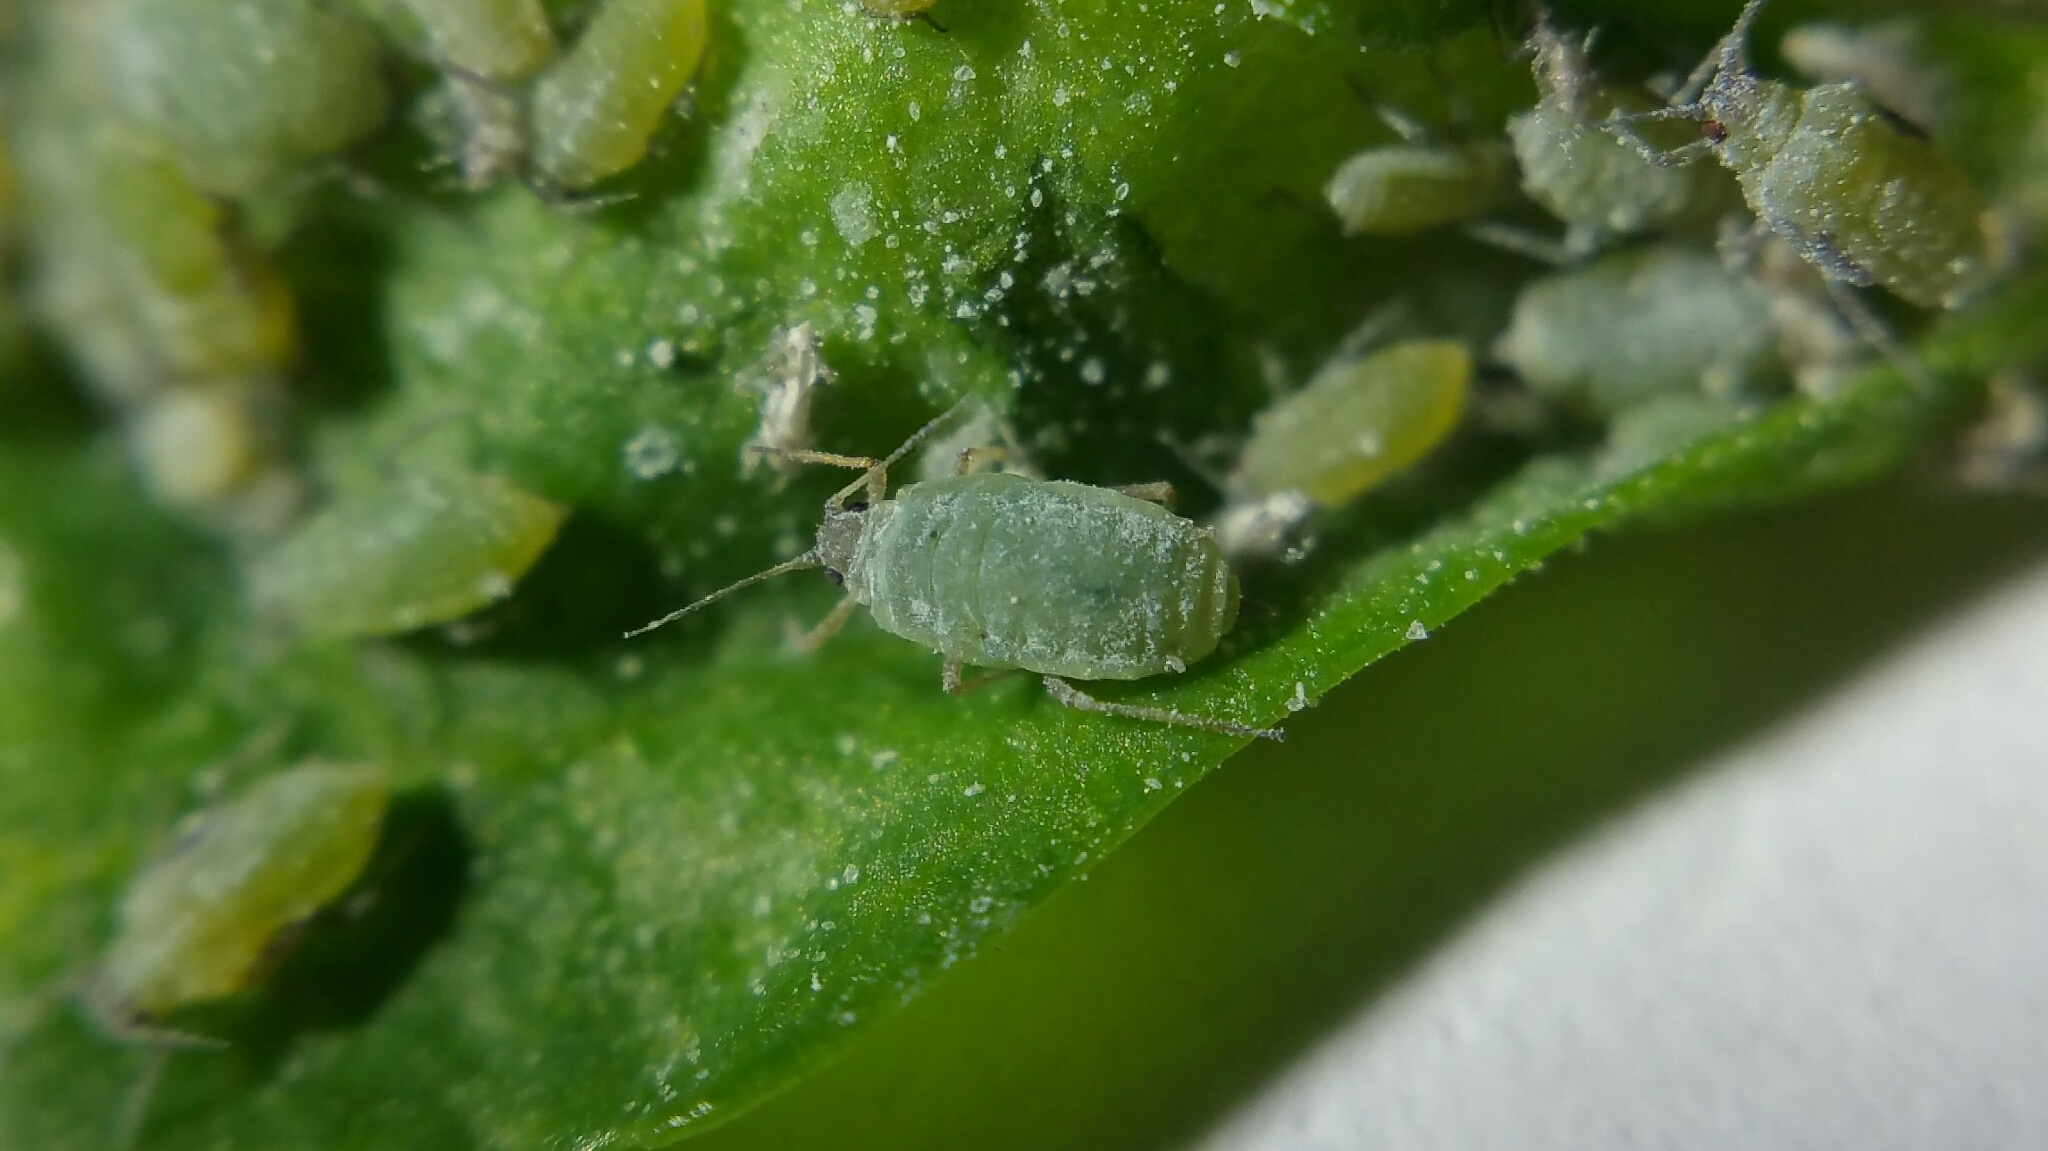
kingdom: Animalia
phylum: Arthropoda
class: Insecta
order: Hemiptera
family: Aphididae
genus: Hayhurstia
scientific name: Hayhurstia atriplicis
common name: Chenopodium aphid
